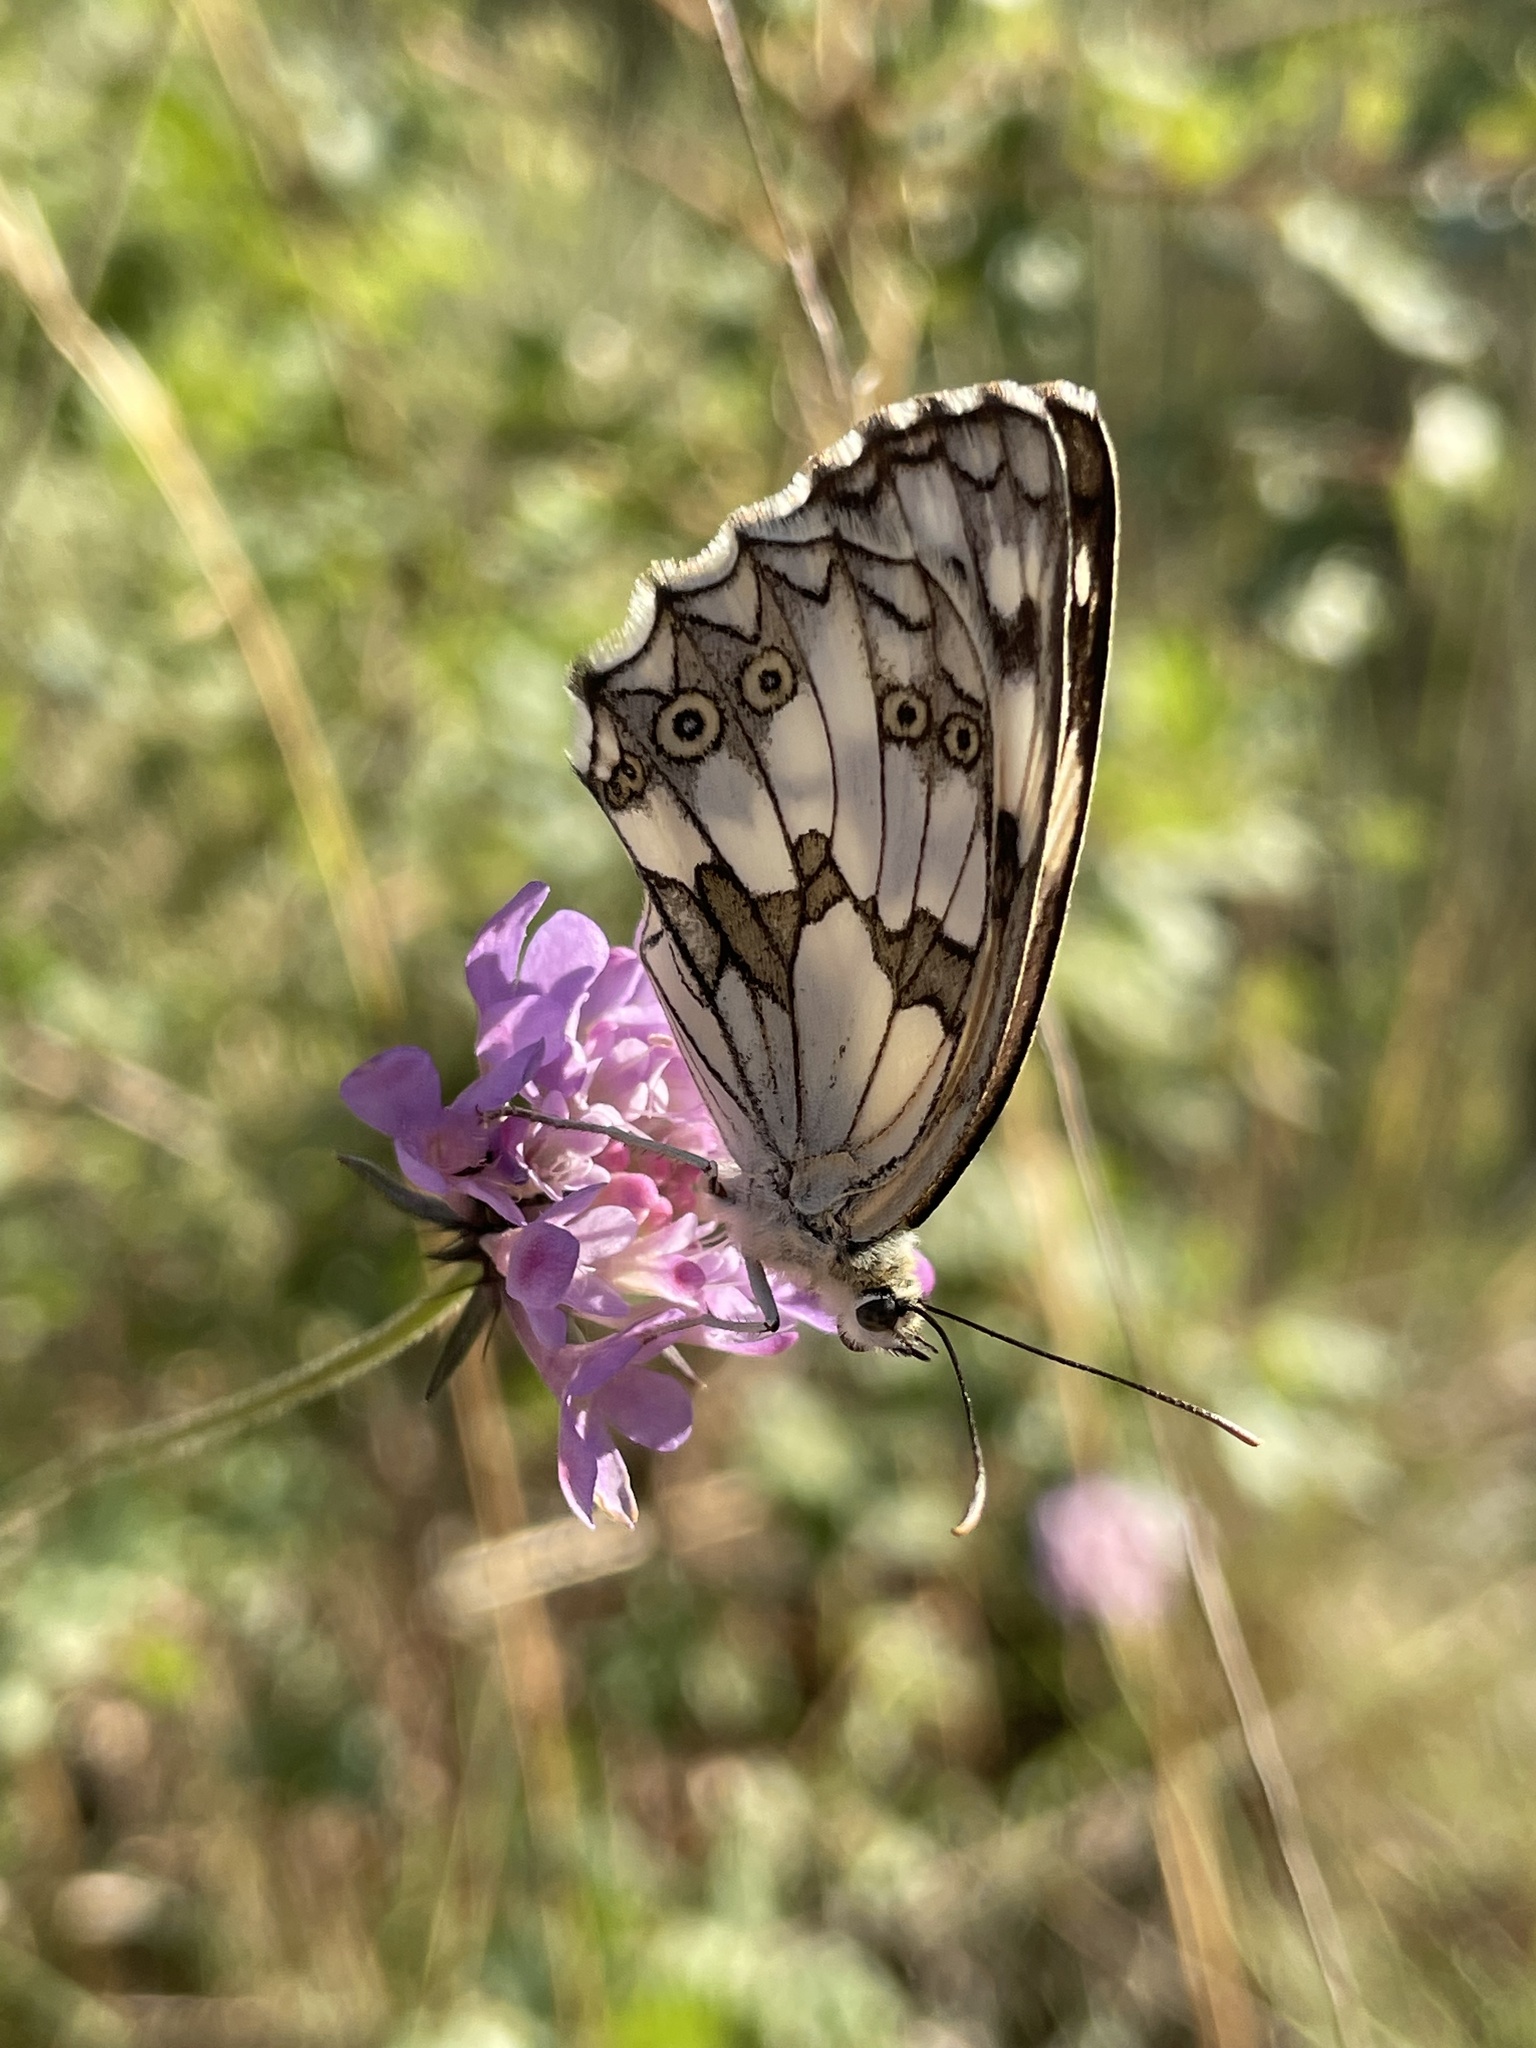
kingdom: Animalia
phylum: Arthropoda
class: Insecta
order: Lepidoptera
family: Nymphalidae
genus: Melanargia
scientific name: Melanargia lachesis
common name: Iberian marbled white
